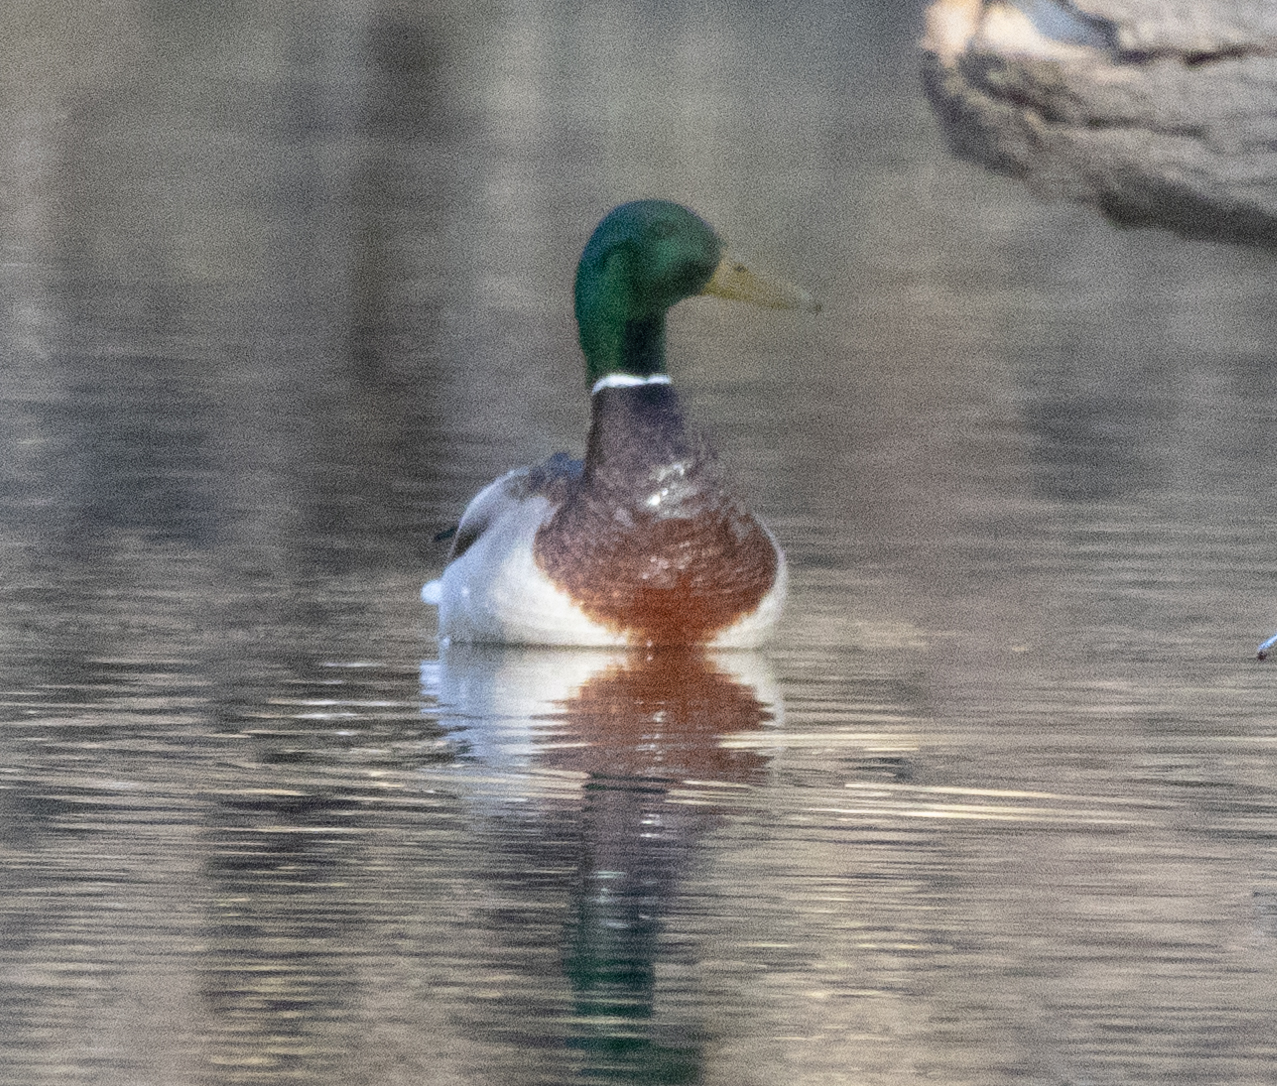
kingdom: Animalia
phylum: Chordata
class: Aves
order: Anseriformes
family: Anatidae
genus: Anas
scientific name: Anas platyrhynchos
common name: Mallard
